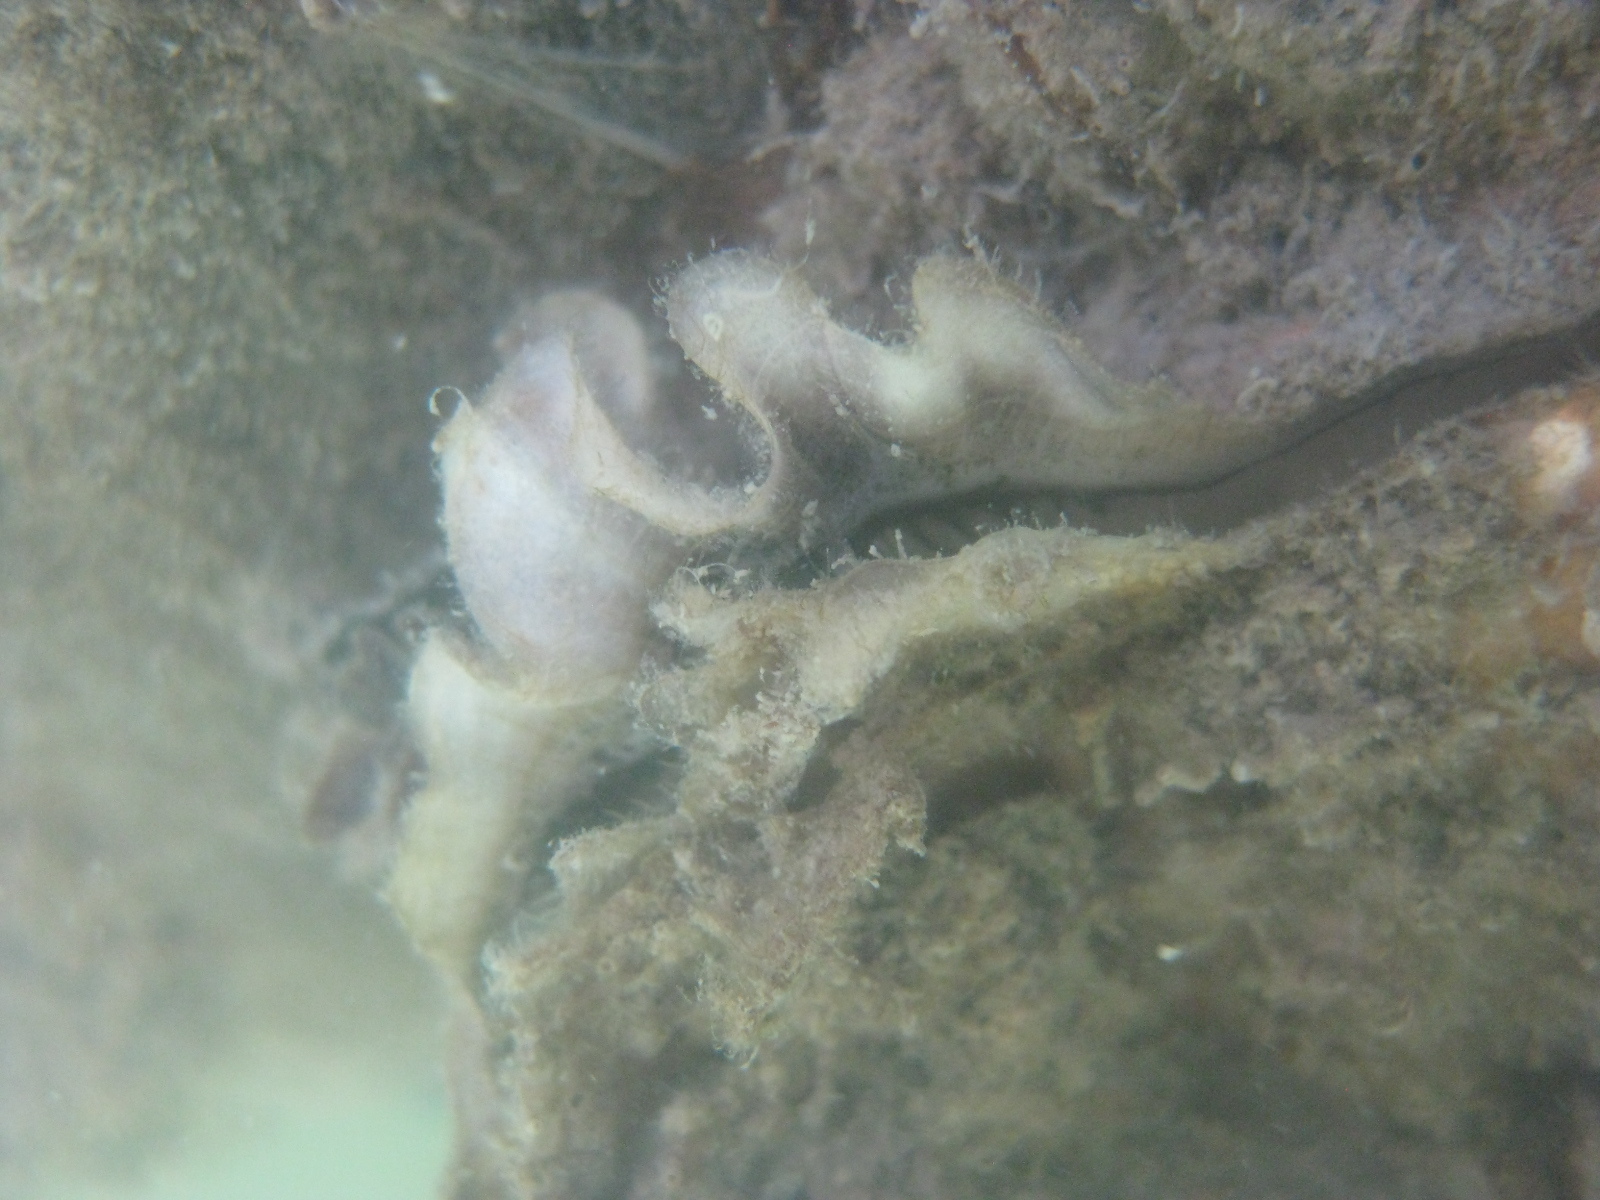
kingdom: Animalia
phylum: Mollusca
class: Bivalvia
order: Ostreida
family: Ostreidae
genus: Magallana
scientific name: Magallana gigas
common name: Pacific oyster
